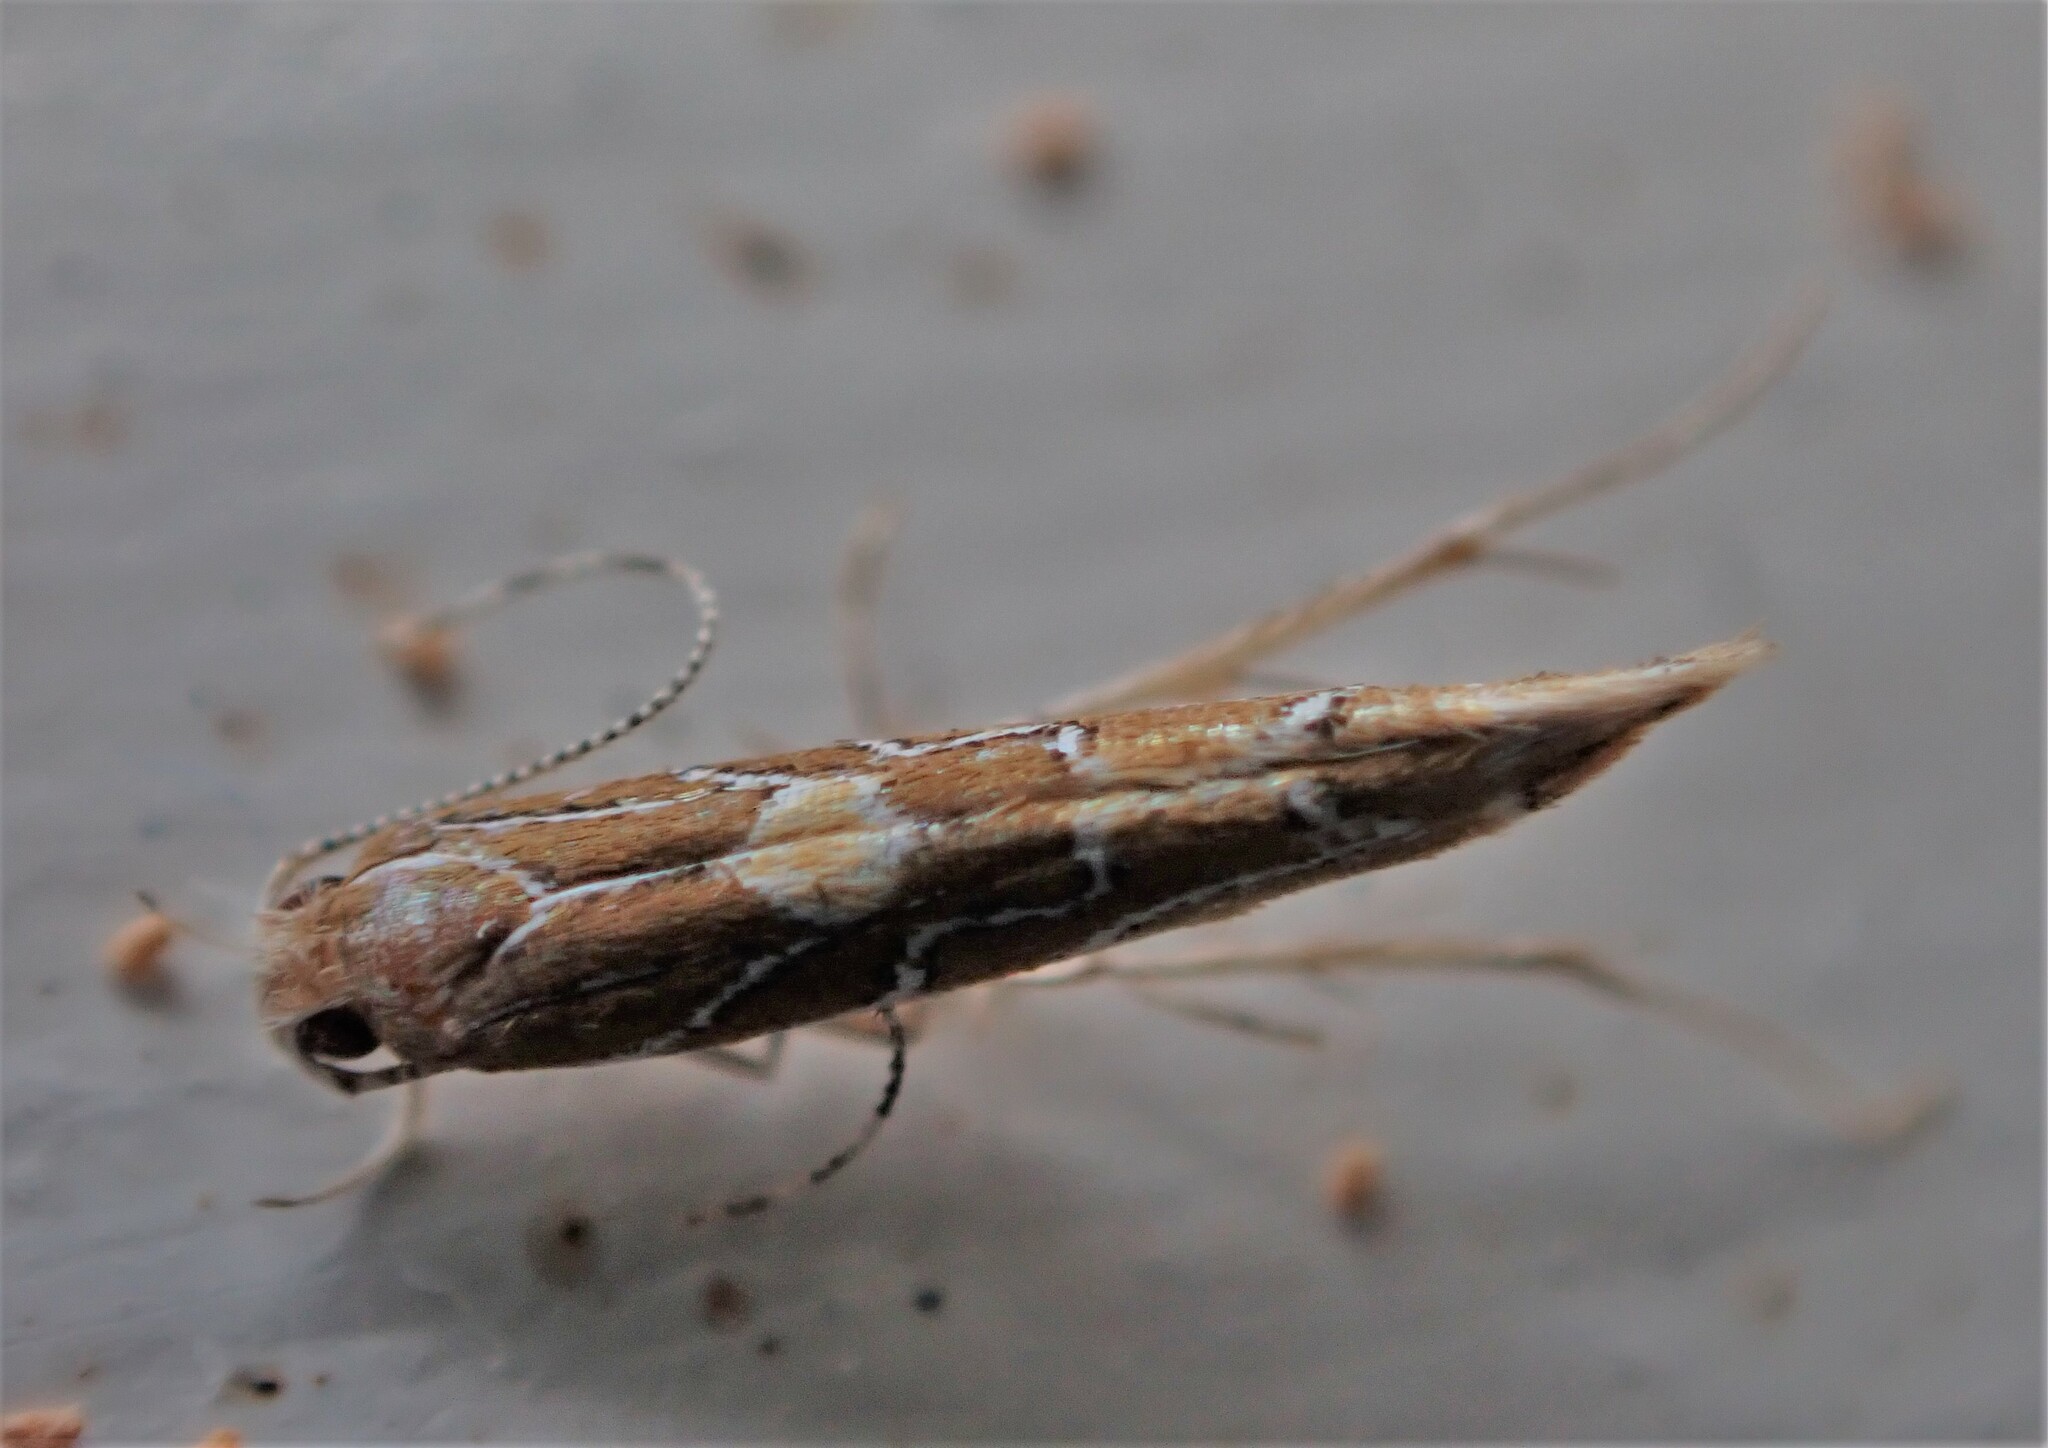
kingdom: Animalia
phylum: Arthropoda
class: Insecta
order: Lepidoptera
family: Cosmopterigidae
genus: Pyroderces
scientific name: Pyroderces apparitella
